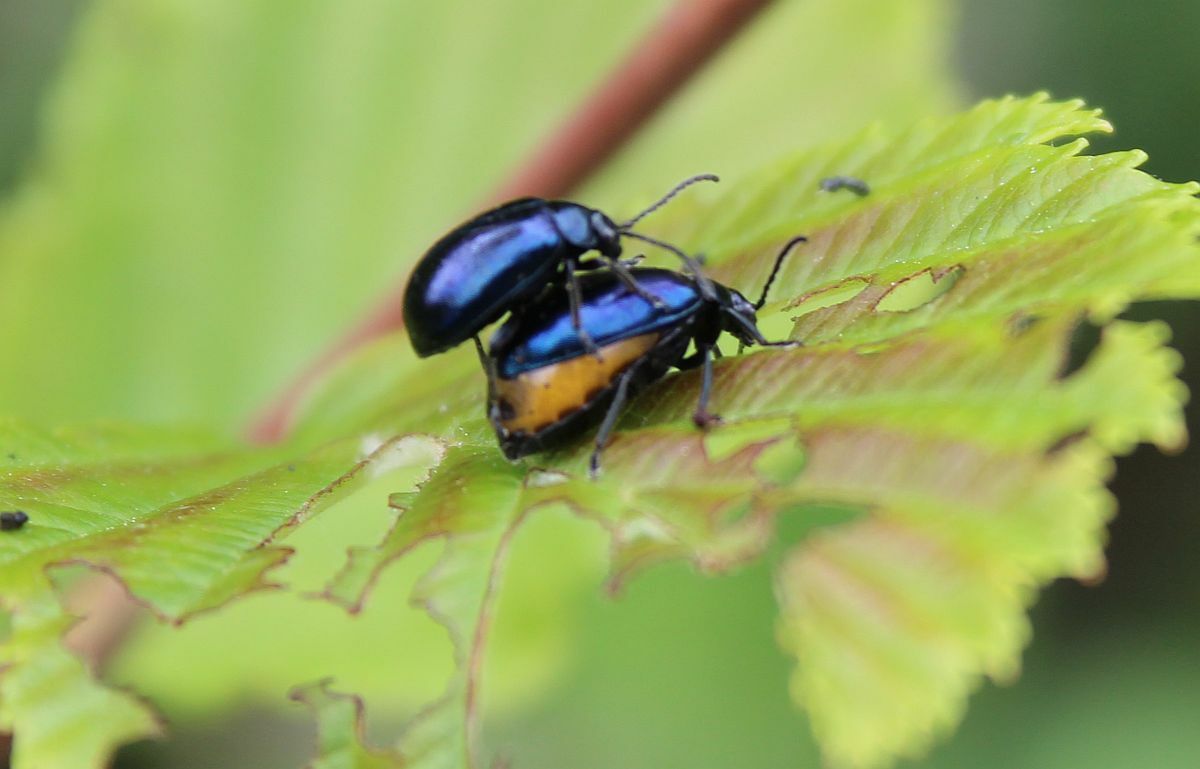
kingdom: Animalia
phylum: Arthropoda
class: Insecta
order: Coleoptera
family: Chrysomelidae
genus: Agelastica
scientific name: Agelastica alni
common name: Alder leaf beetle
